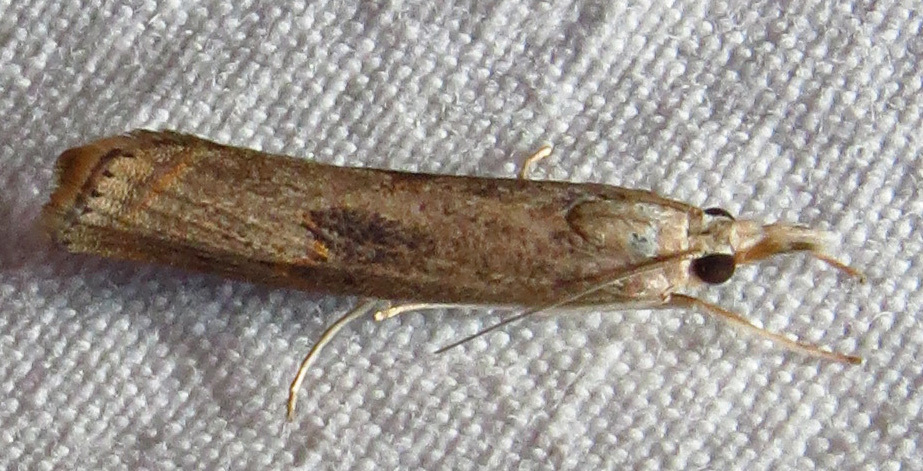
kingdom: Animalia
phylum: Arthropoda
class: Insecta
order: Lepidoptera
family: Crambidae
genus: Parapediasia
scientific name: Parapediasia teterellus
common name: Bluegrass webworm moth
